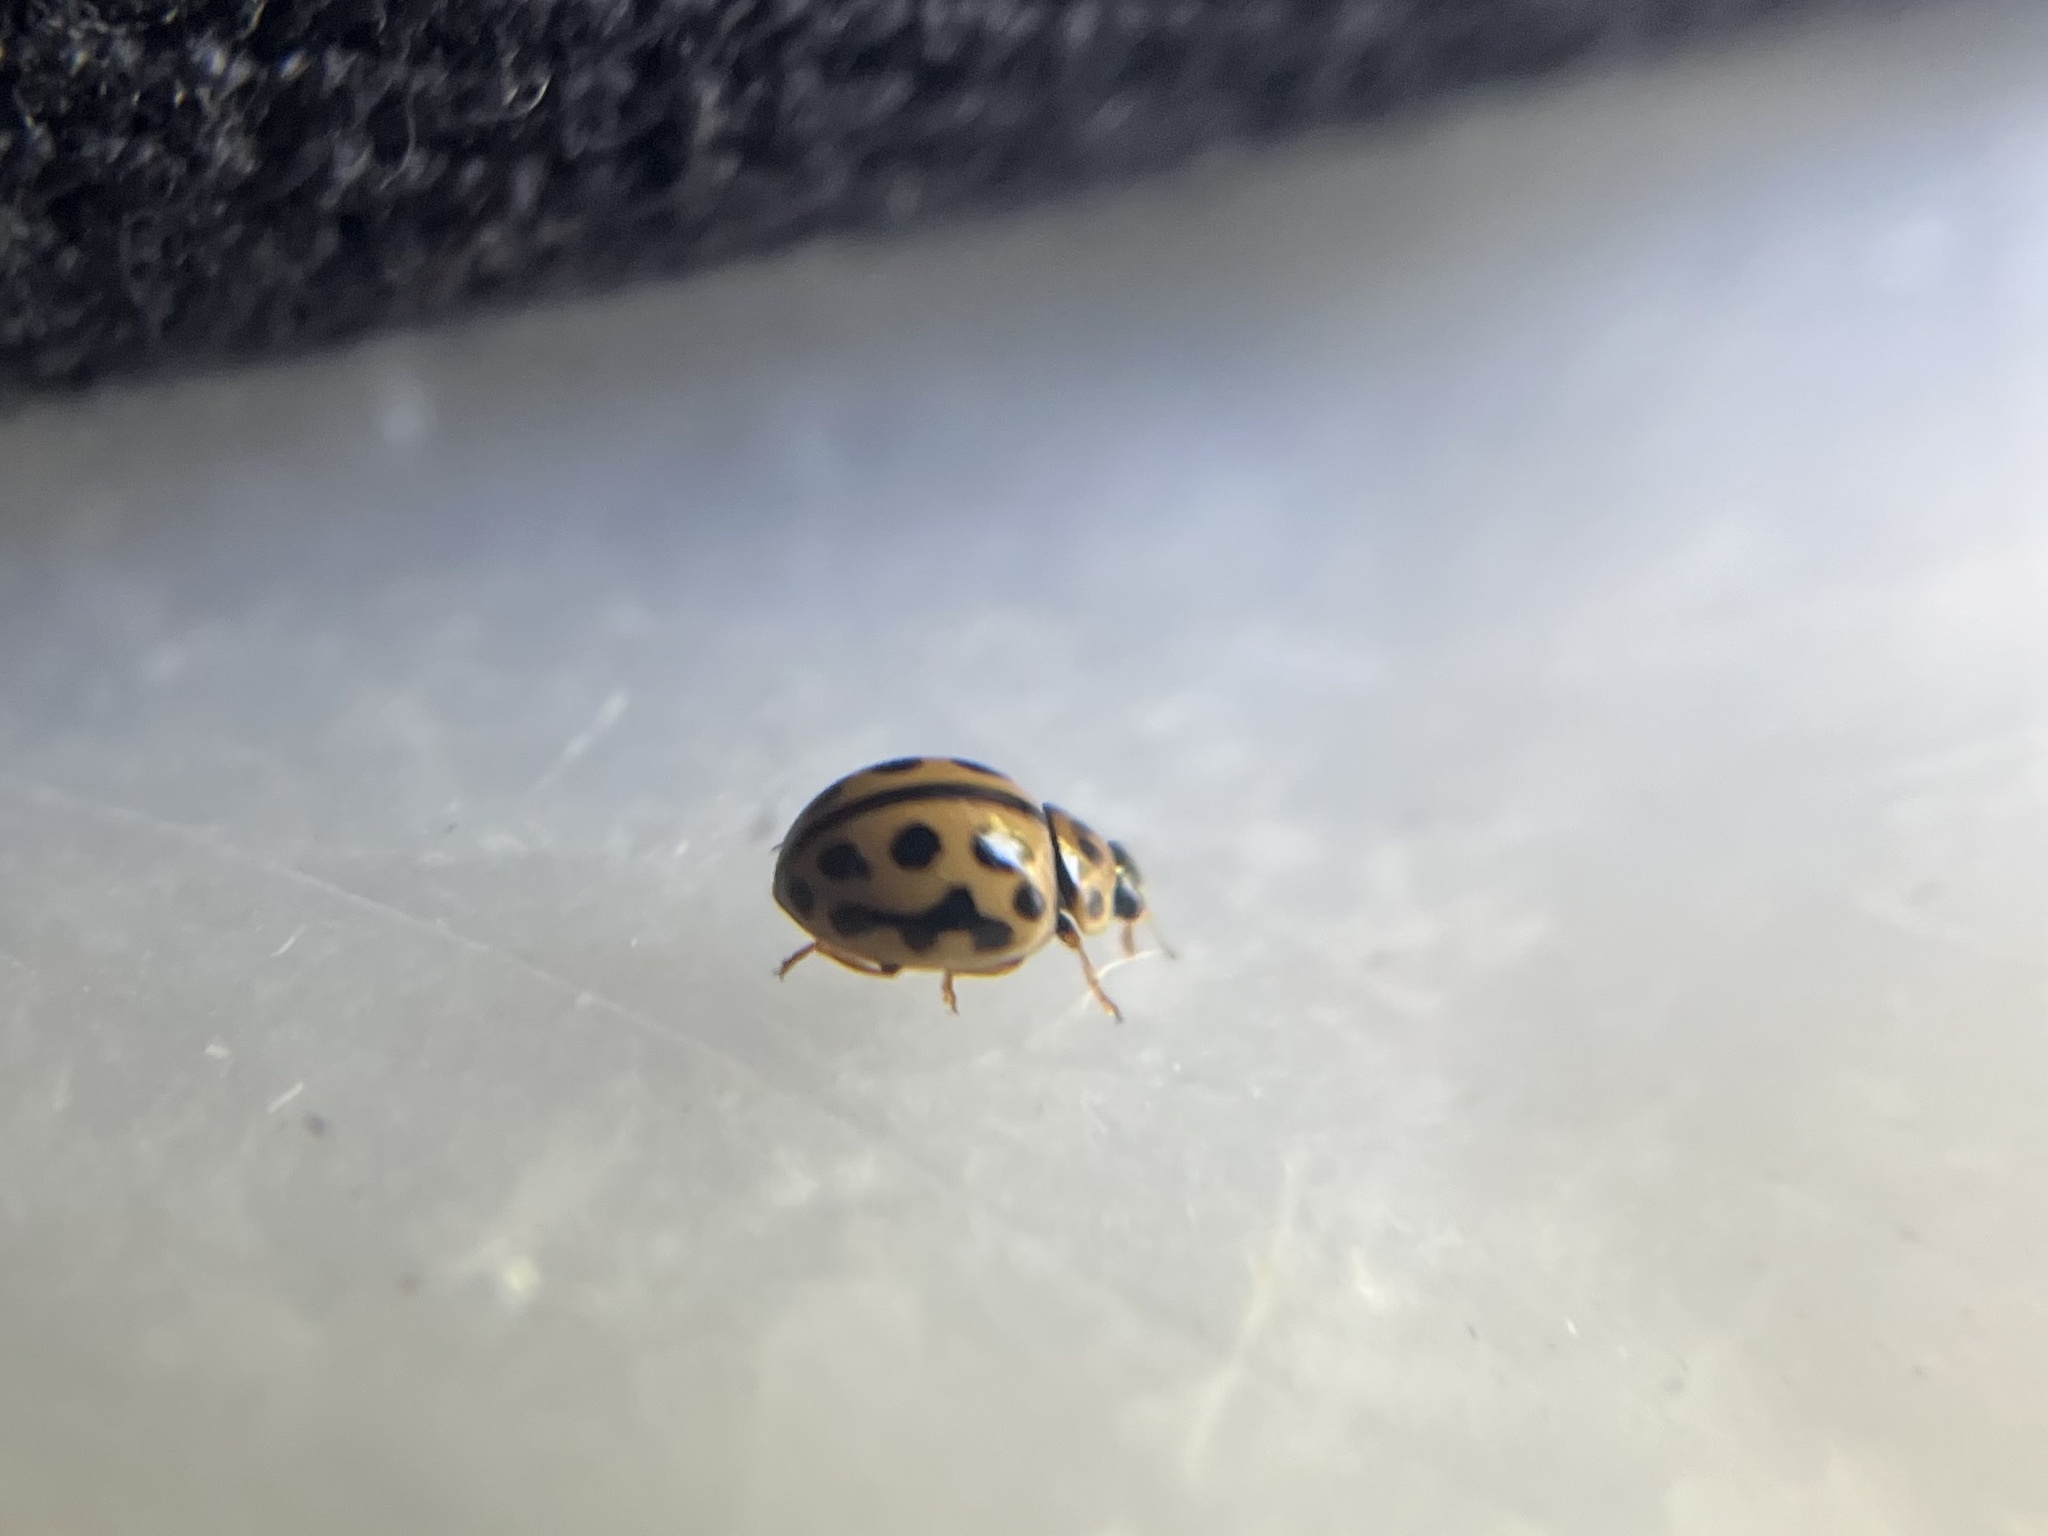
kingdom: Animalia
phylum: Arthropoda
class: Insecta
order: Coleoptera
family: Coccinellidae
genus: Tytthaspis
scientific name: Tytthaspis sedecimpunctata
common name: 16-spot ladybird
